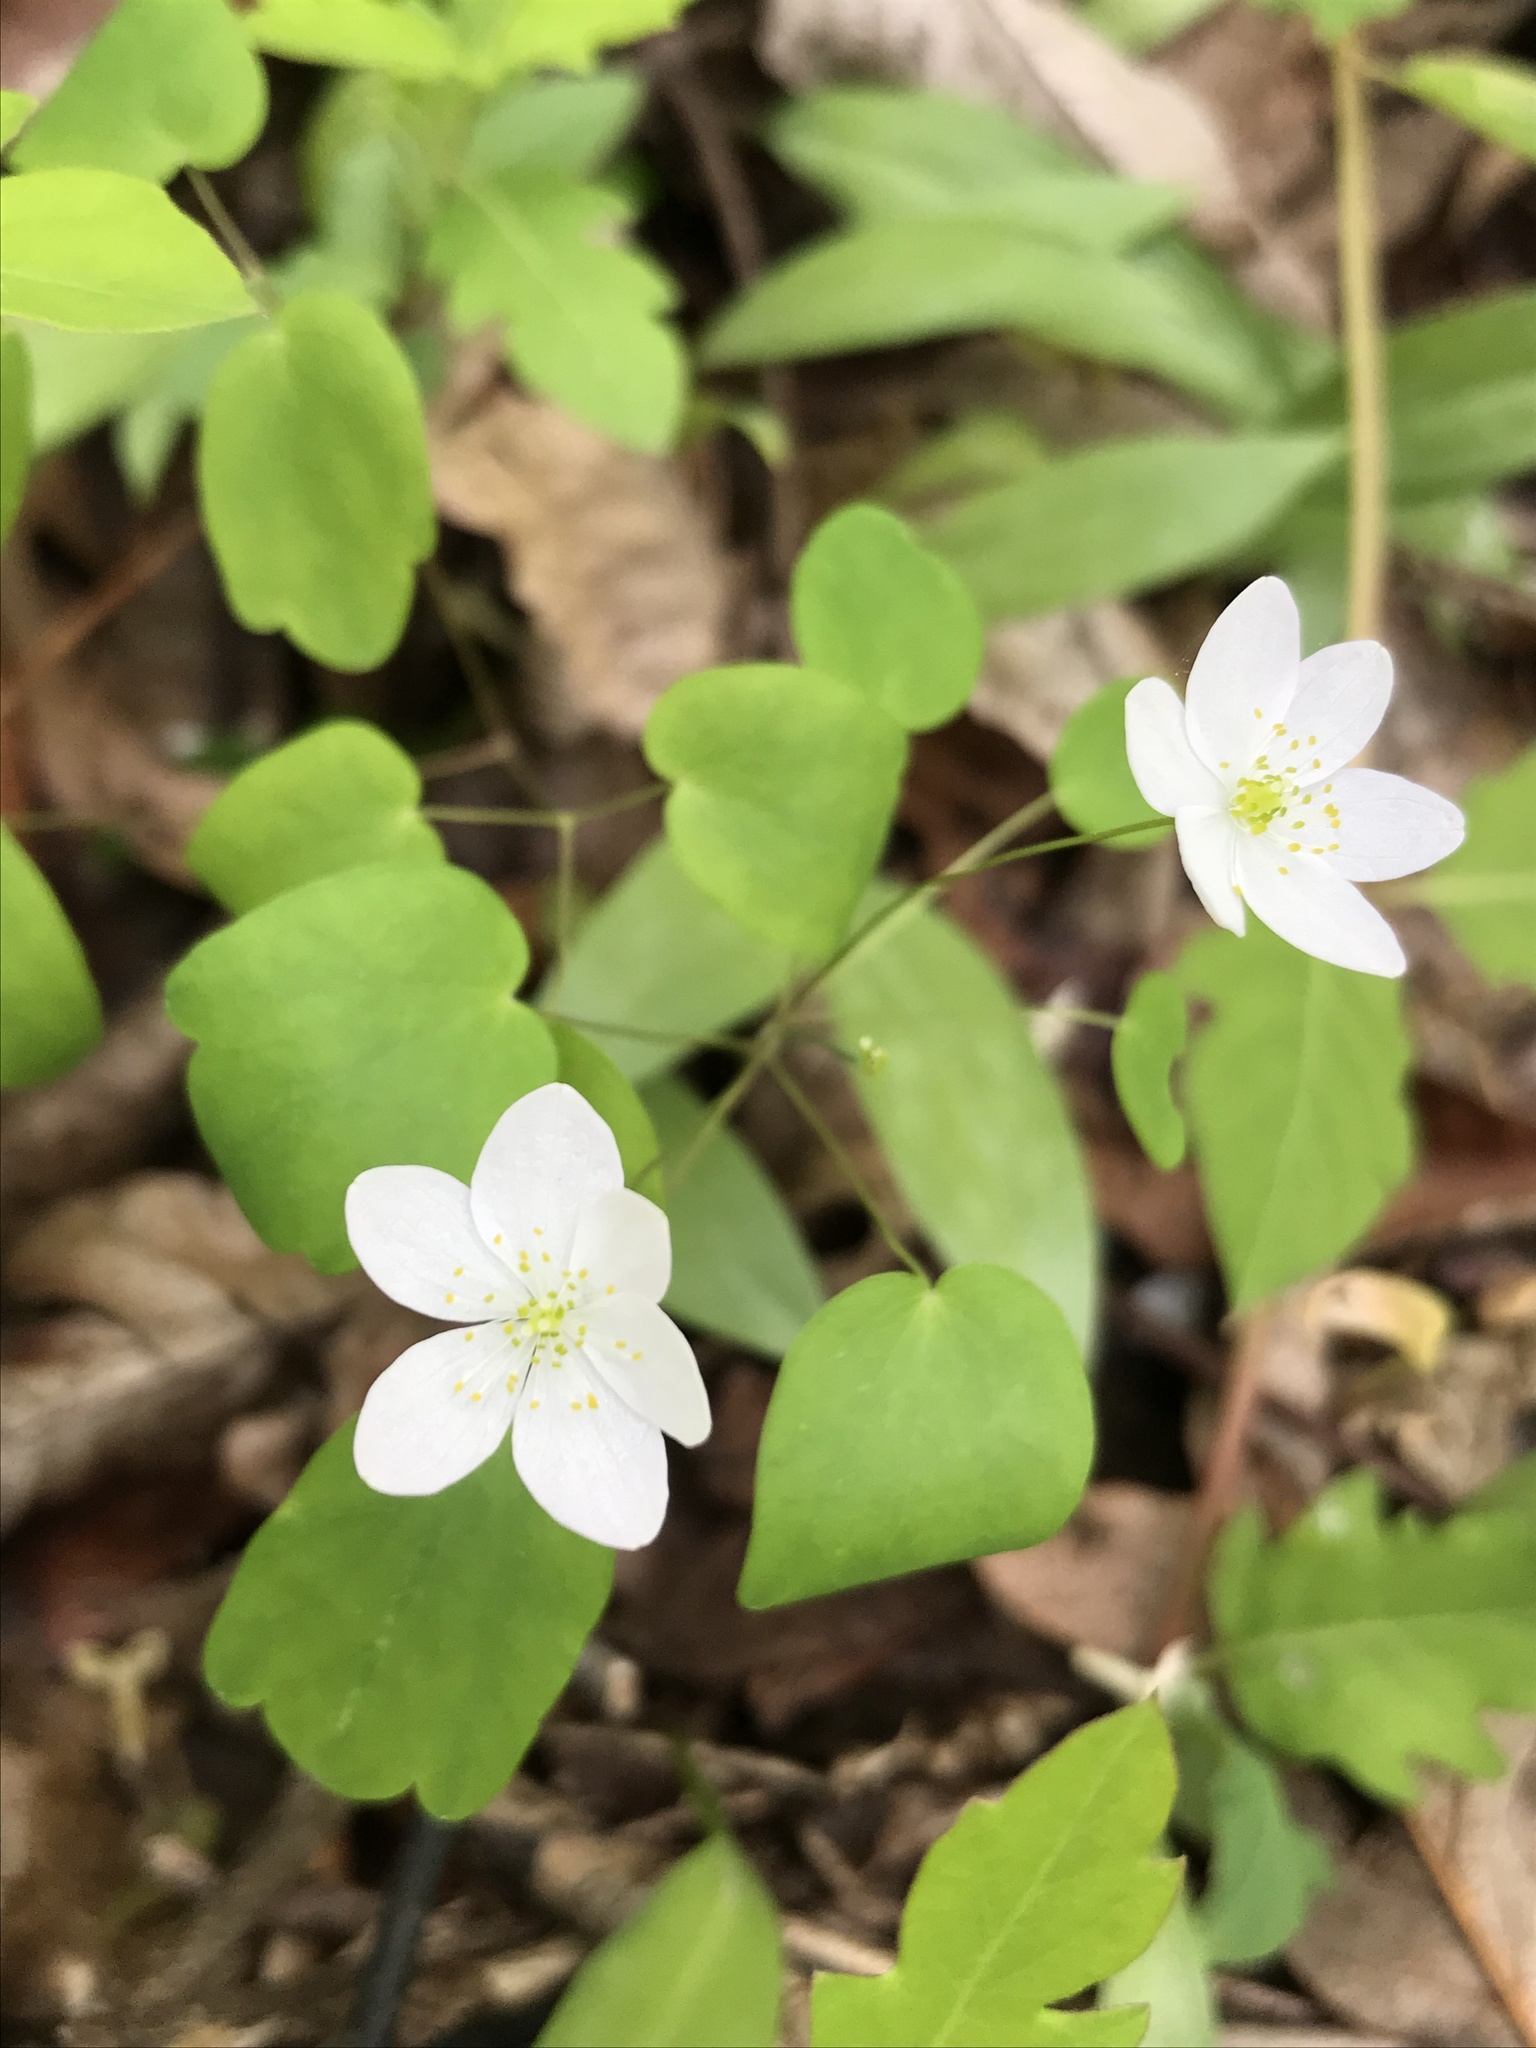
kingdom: Plantae
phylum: Tracheophyta
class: Magnoliopsida
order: Ranunculales
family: Ranunculaceae
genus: Thalictrum
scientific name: Thalictrum thalictroides
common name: Rue-anemone
